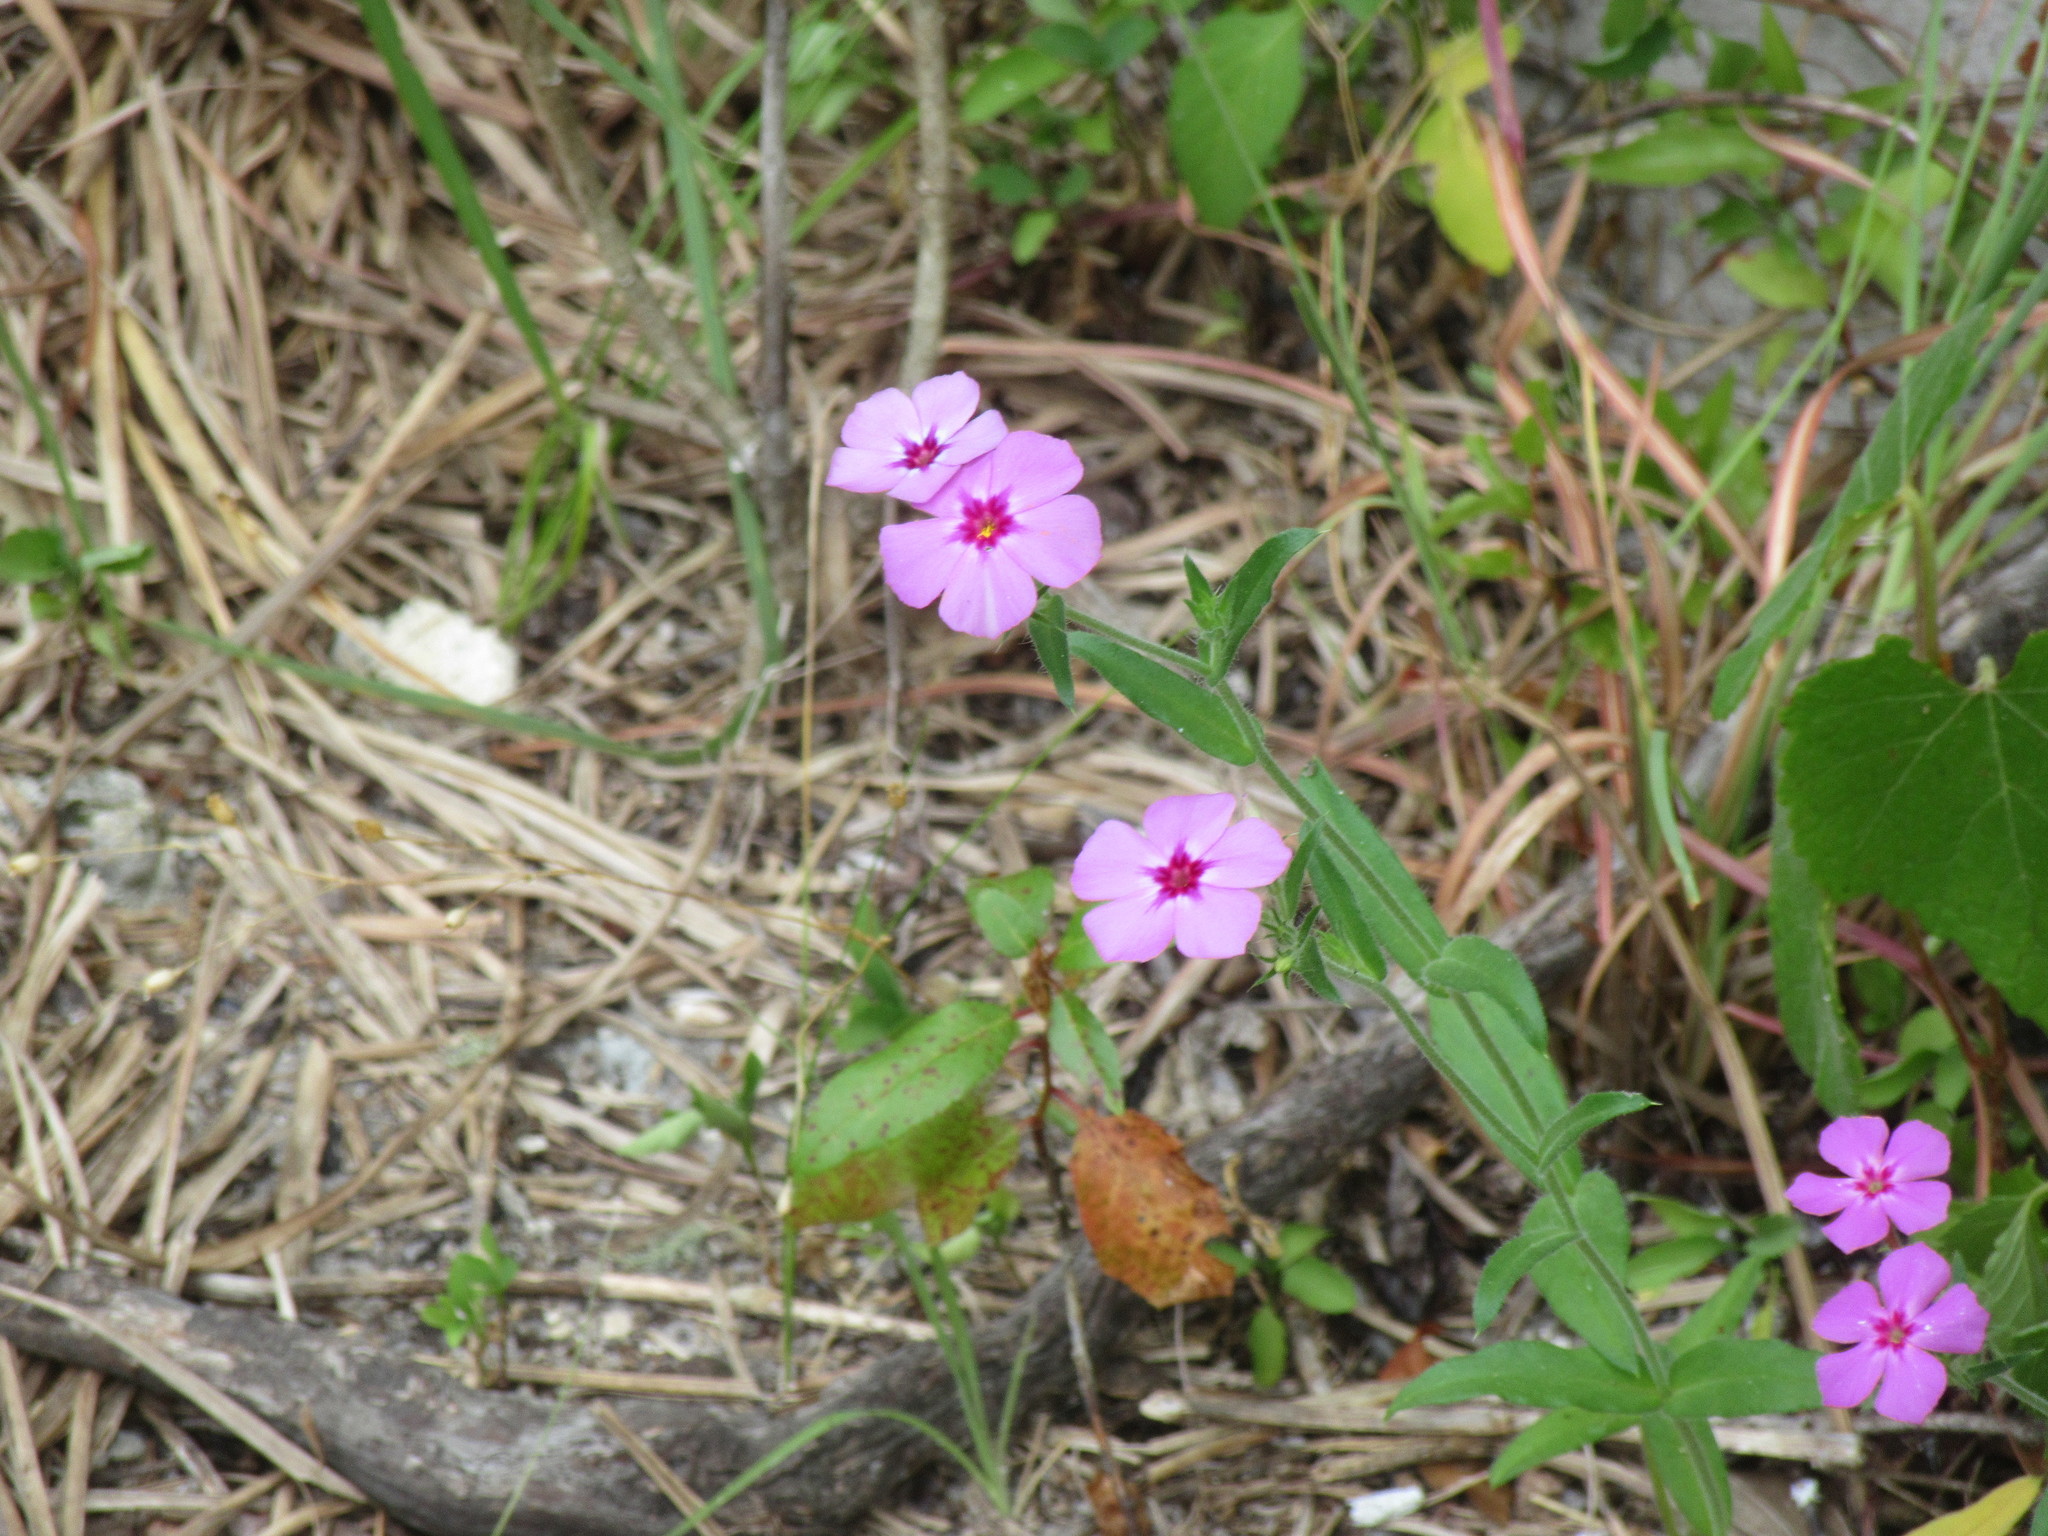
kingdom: Plantae
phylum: Tracheophyta
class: Magnoliopsida
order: Ericales
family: Polemoniaceae
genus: Phlox
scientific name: Phlox drummondii
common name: Drummond's phlox
